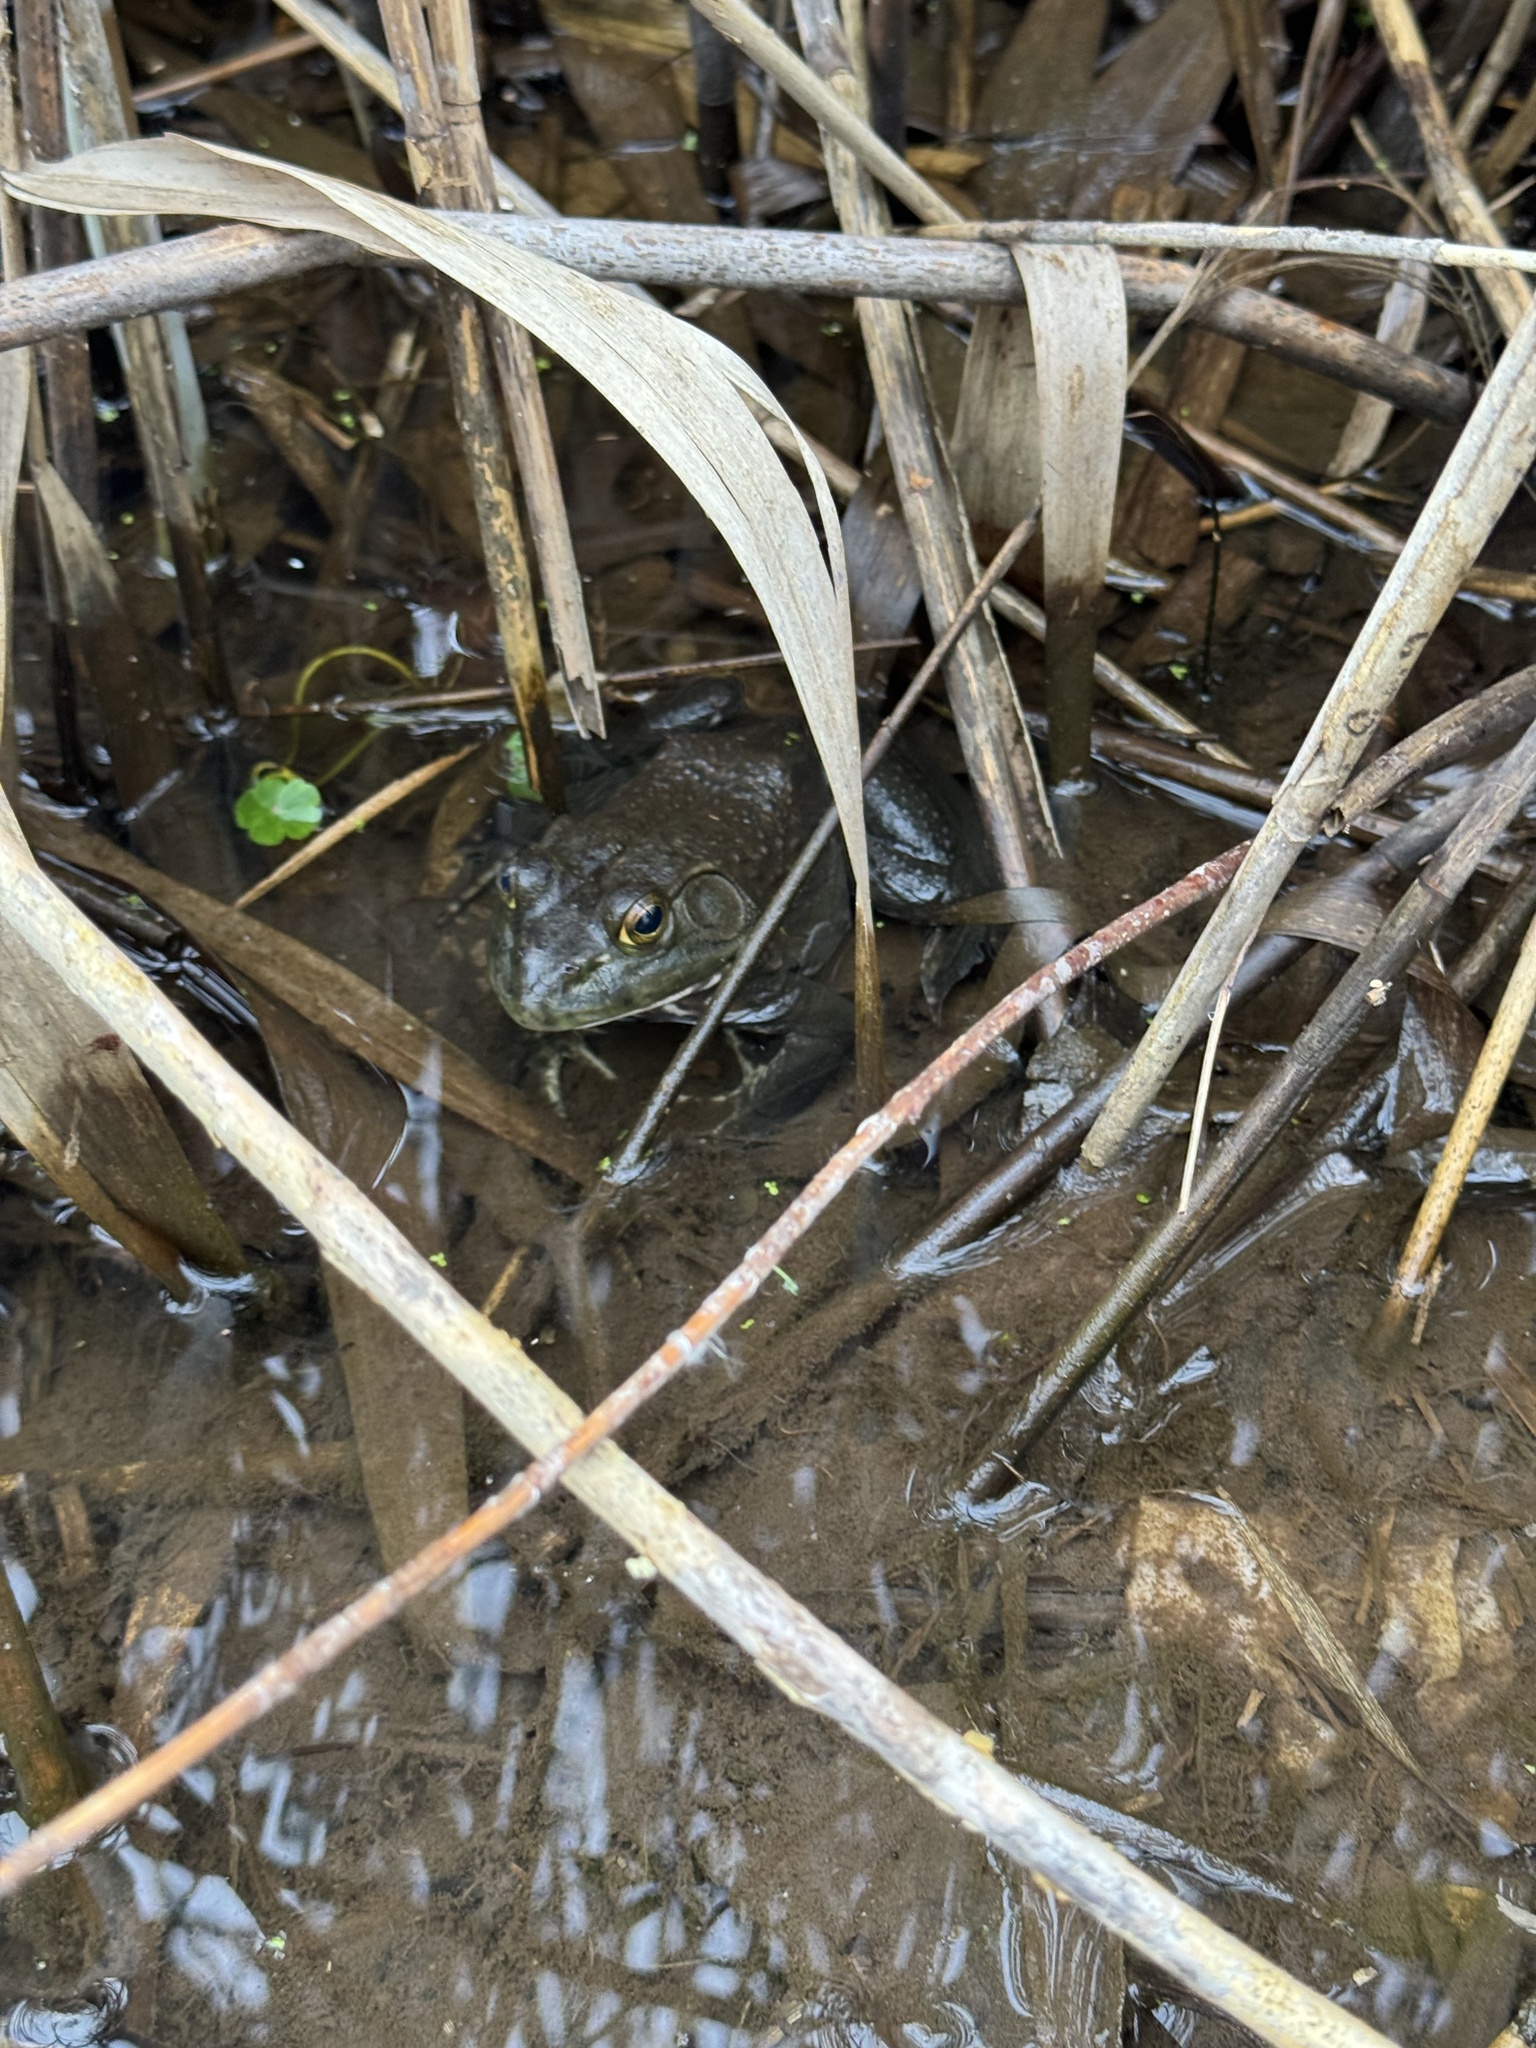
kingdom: Animalia
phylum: Chordata
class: Amphibia
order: Anura
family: Ranidae
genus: Lithobates
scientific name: Lithobates catesbeianus
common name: American bullfrog
